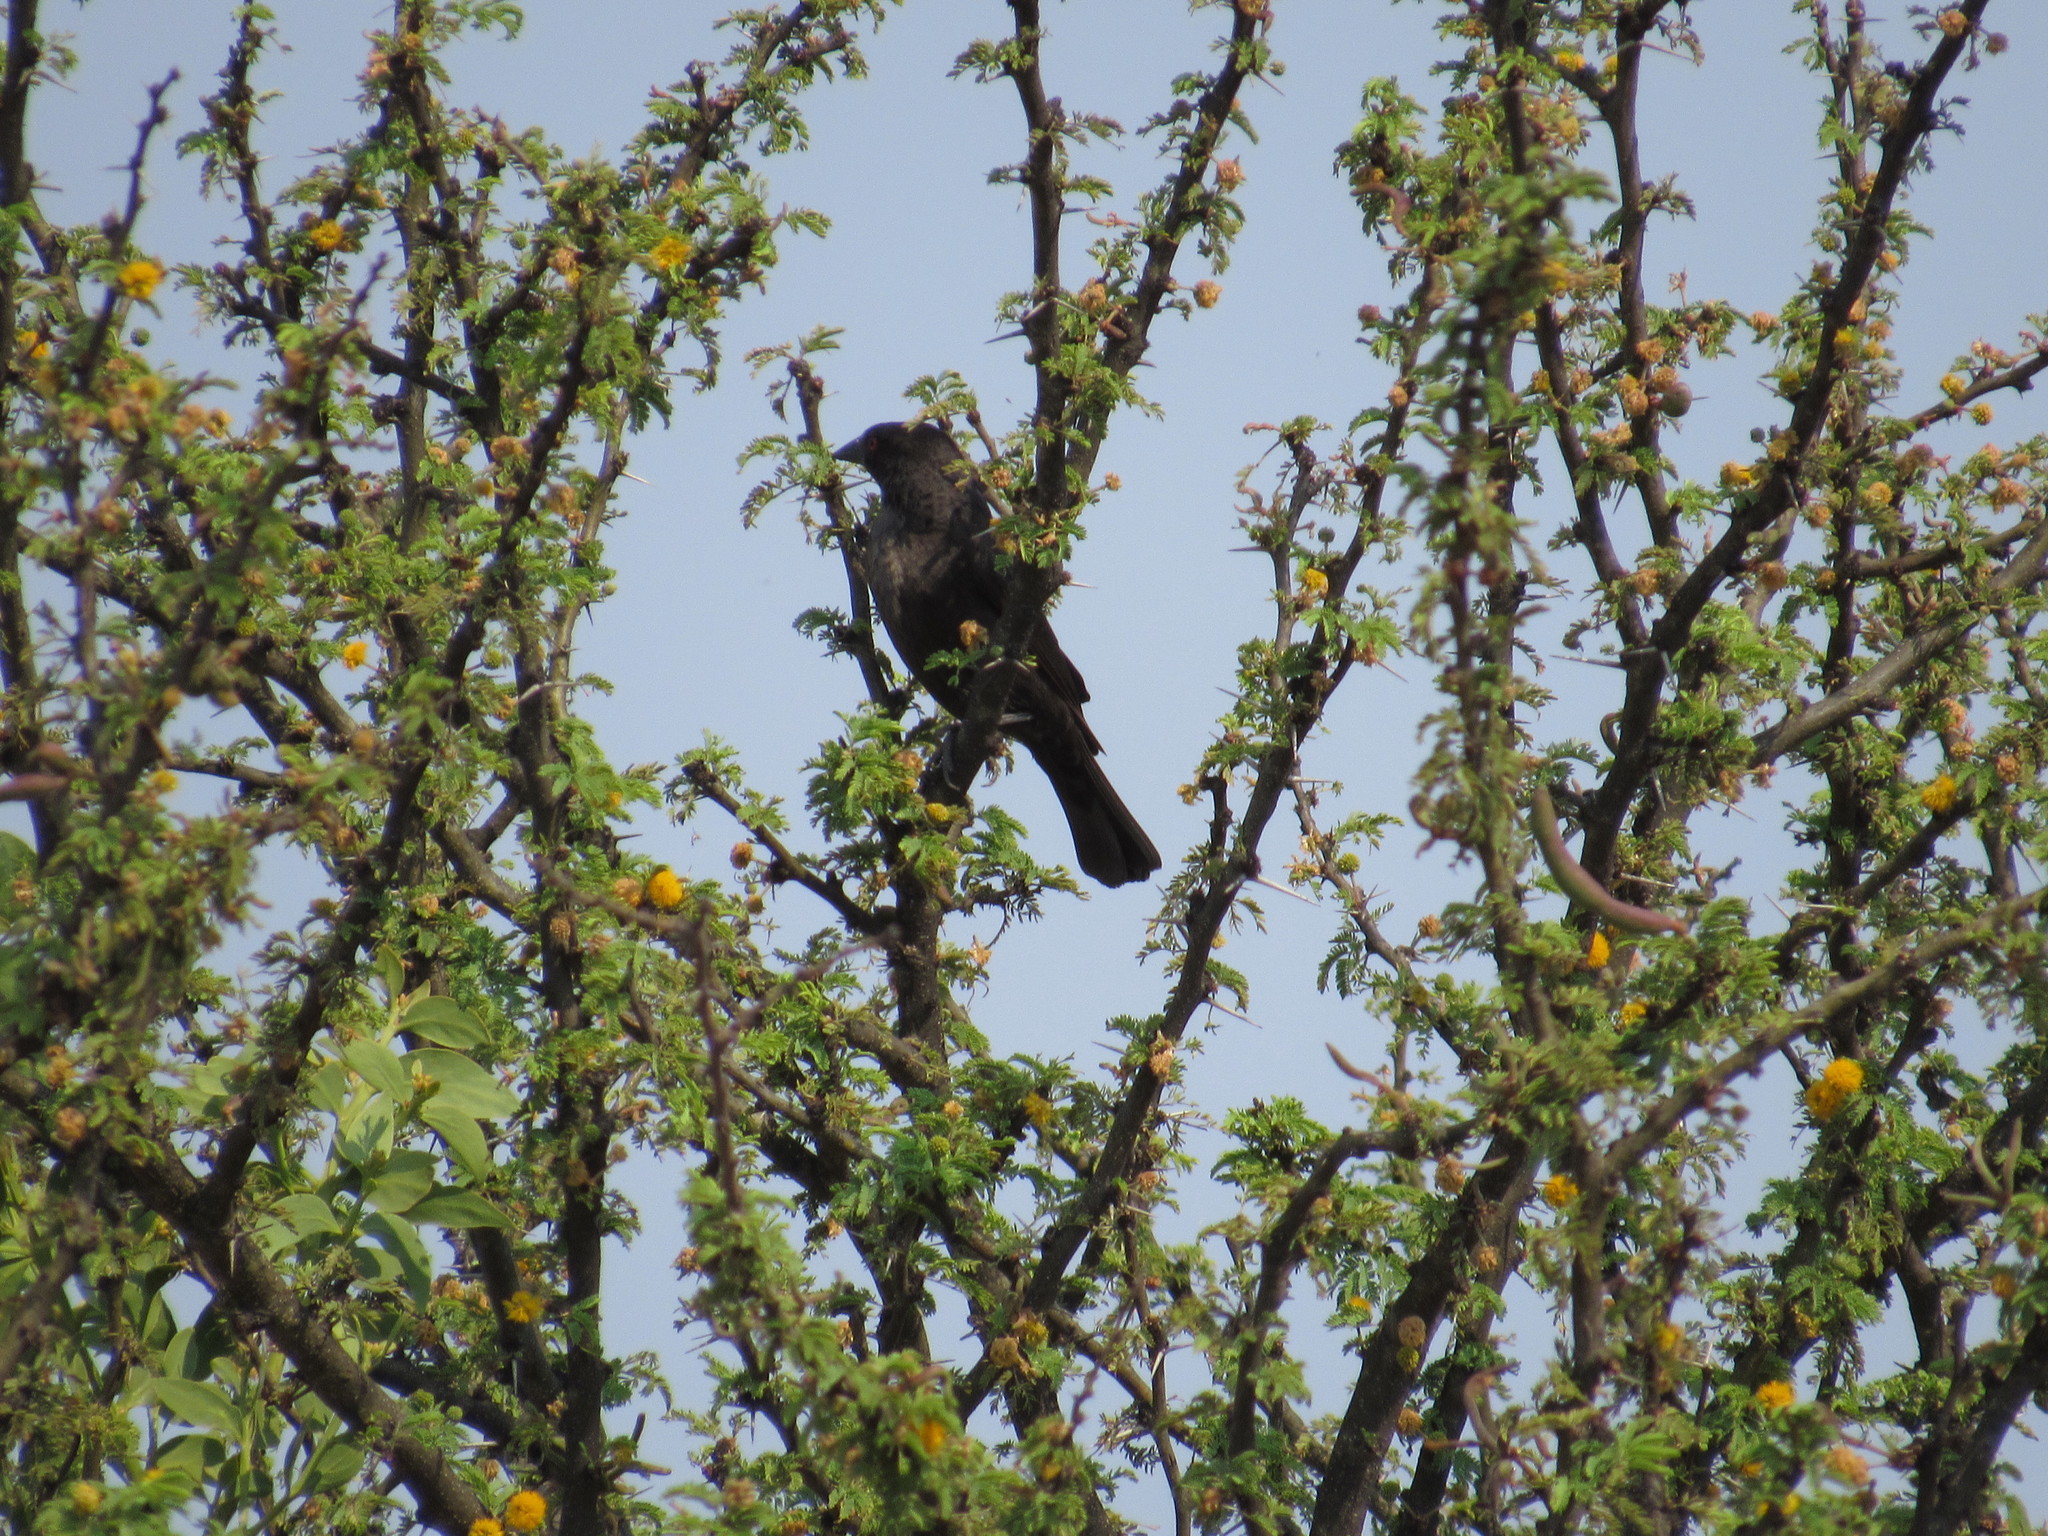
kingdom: Animalia
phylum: Chordata
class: Aves
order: Passeriformes
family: Icteridae
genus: Molothrus
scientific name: Molothrus aeneus
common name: Bronzed cowbird
